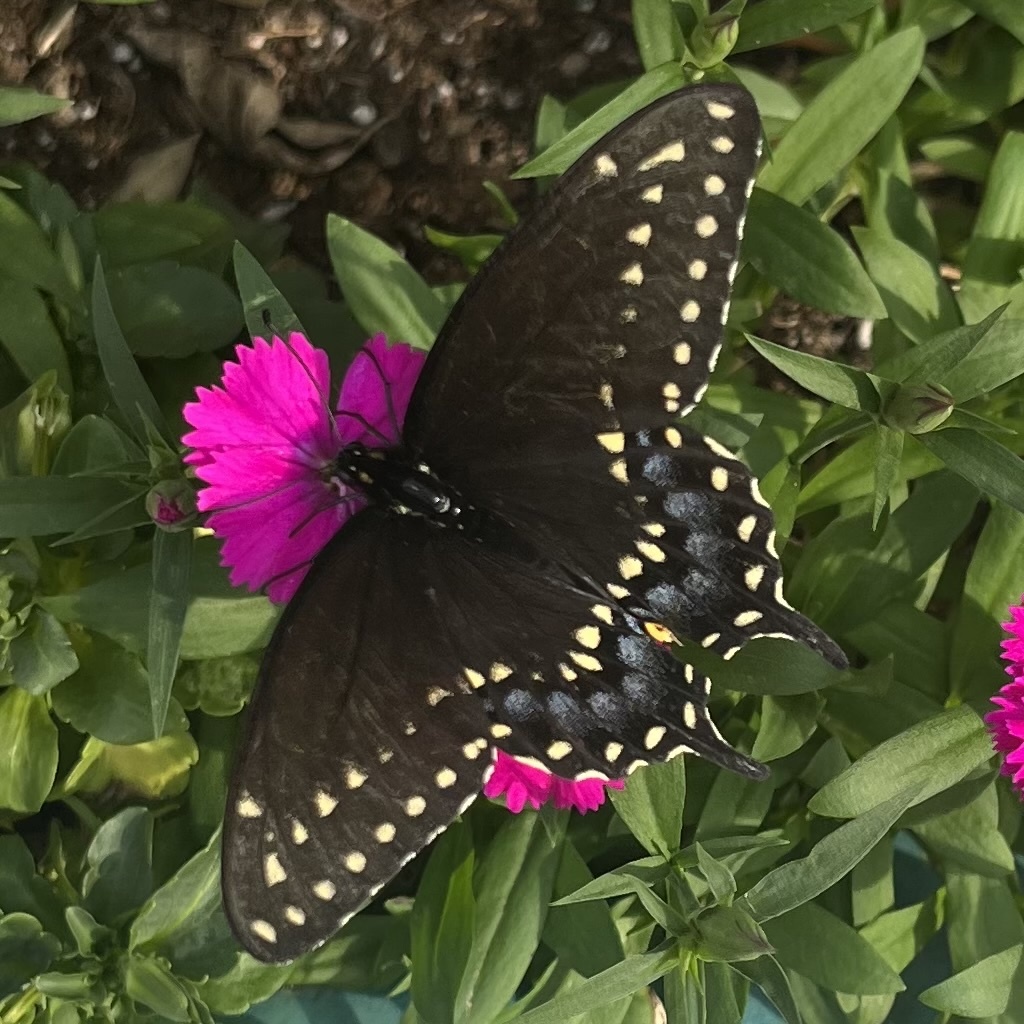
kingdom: Animalia
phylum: Arthropoda
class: Insecta
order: Lepidoptera
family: Papilionidae
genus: Papilio
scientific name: Papilio polyxenes
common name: Black swallowtail
